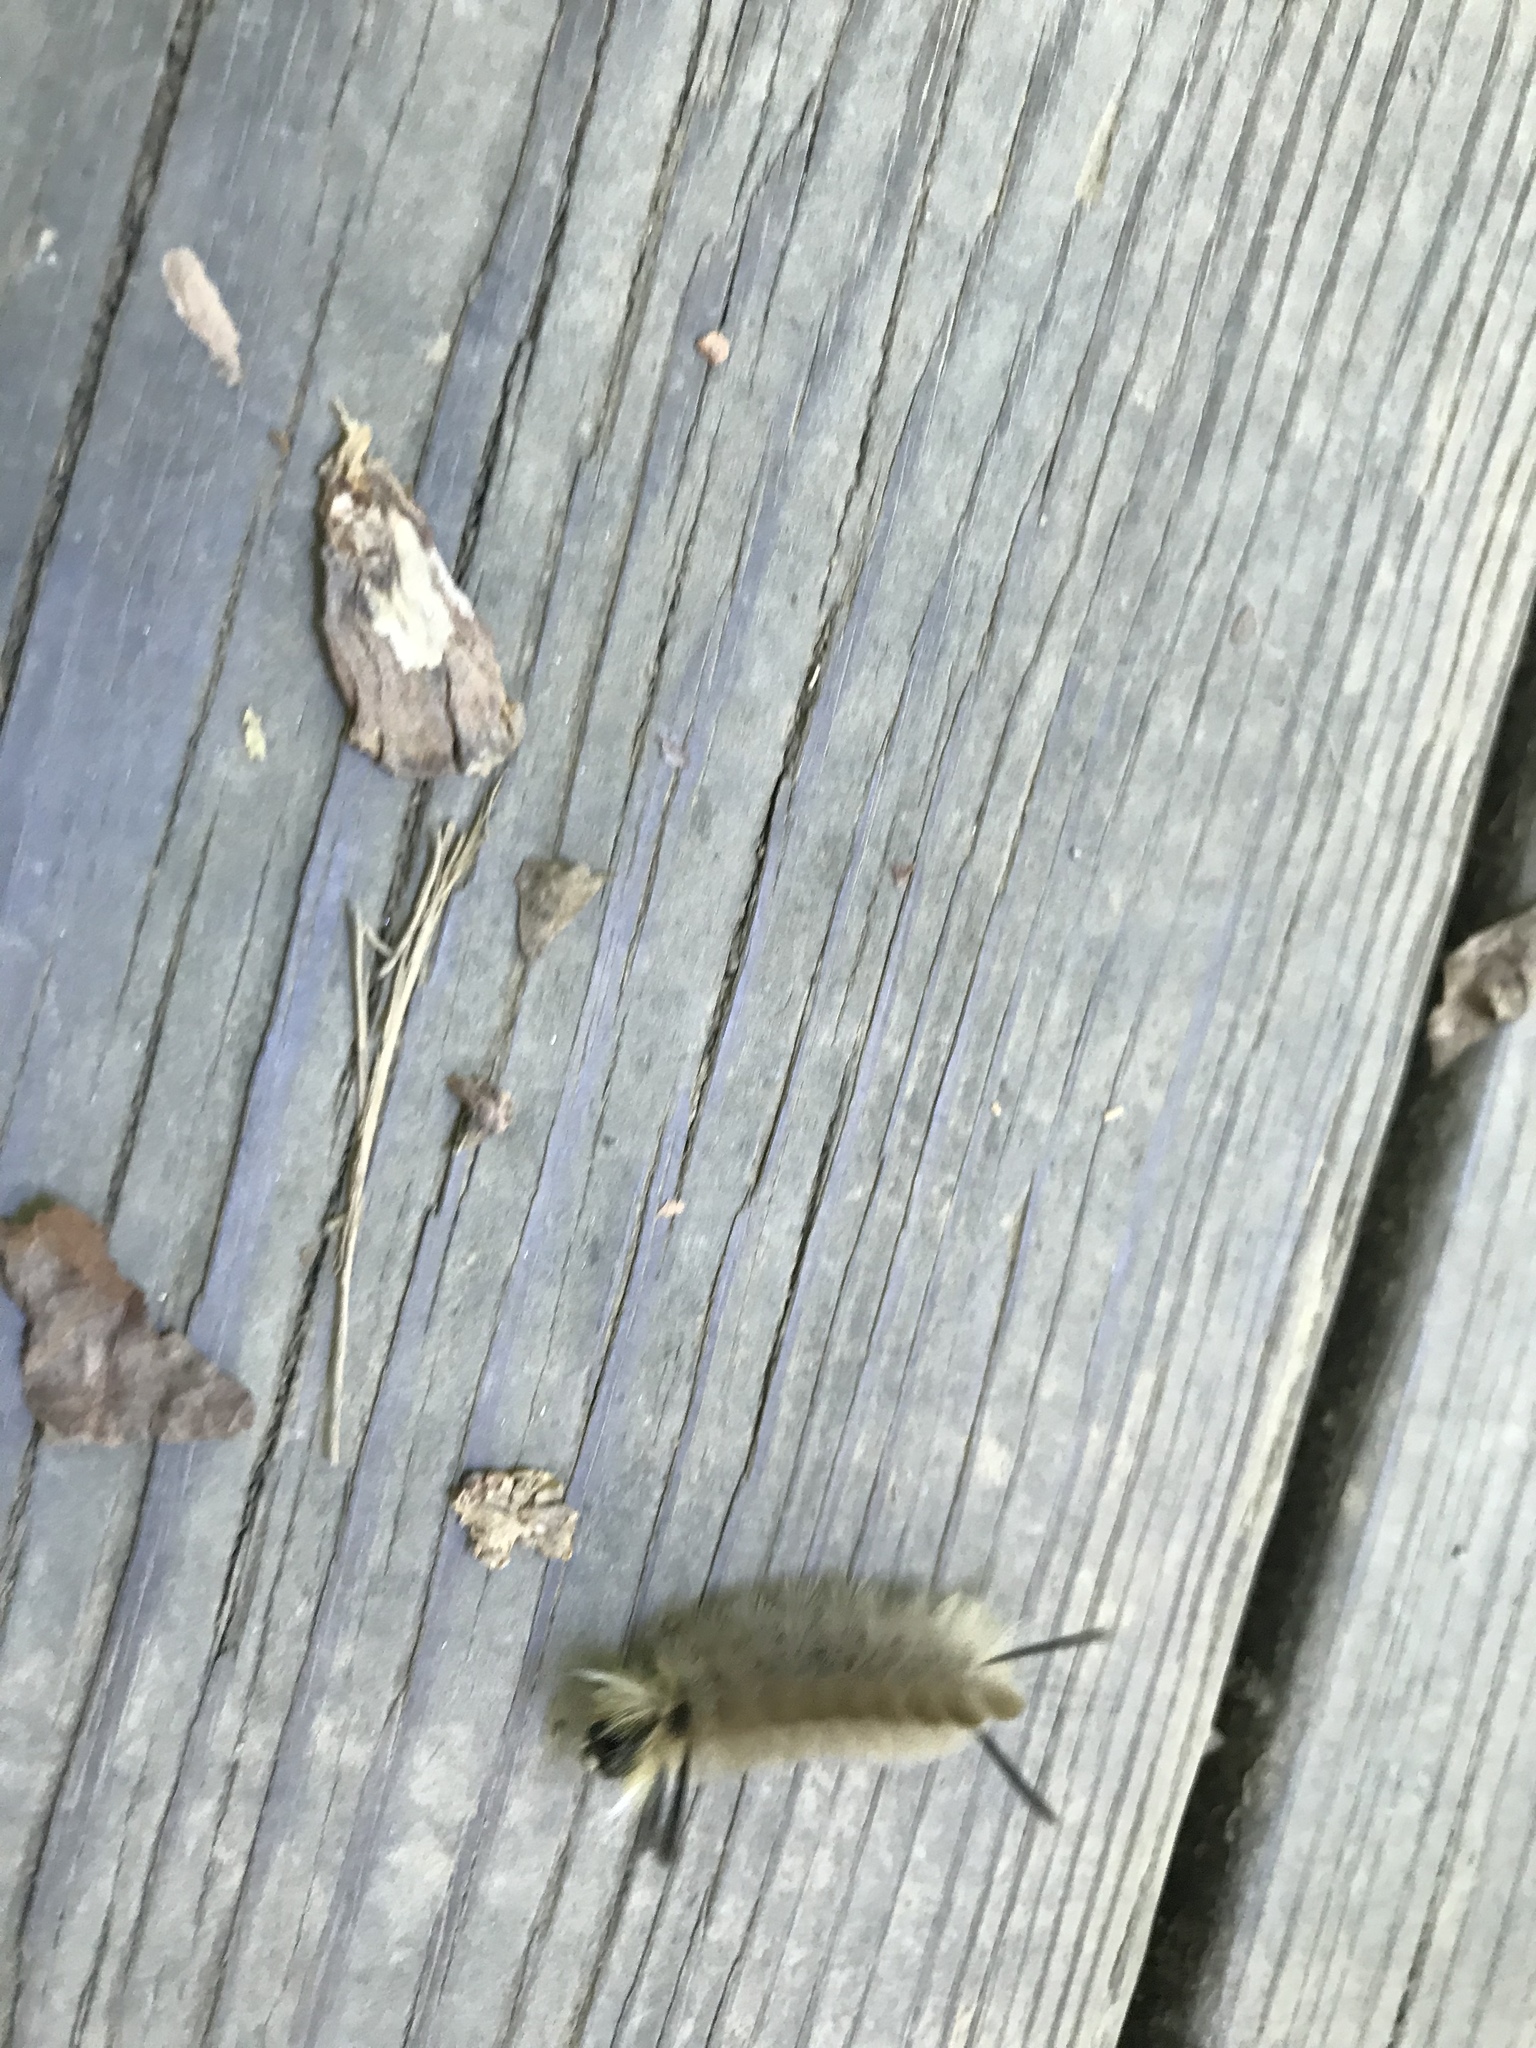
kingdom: Animalia
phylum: Arthropoda
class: Insecta
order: Lepidoptera
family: Erebidae
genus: Halysidota
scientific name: Halysidota tessellaris
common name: Banded tussock moth
